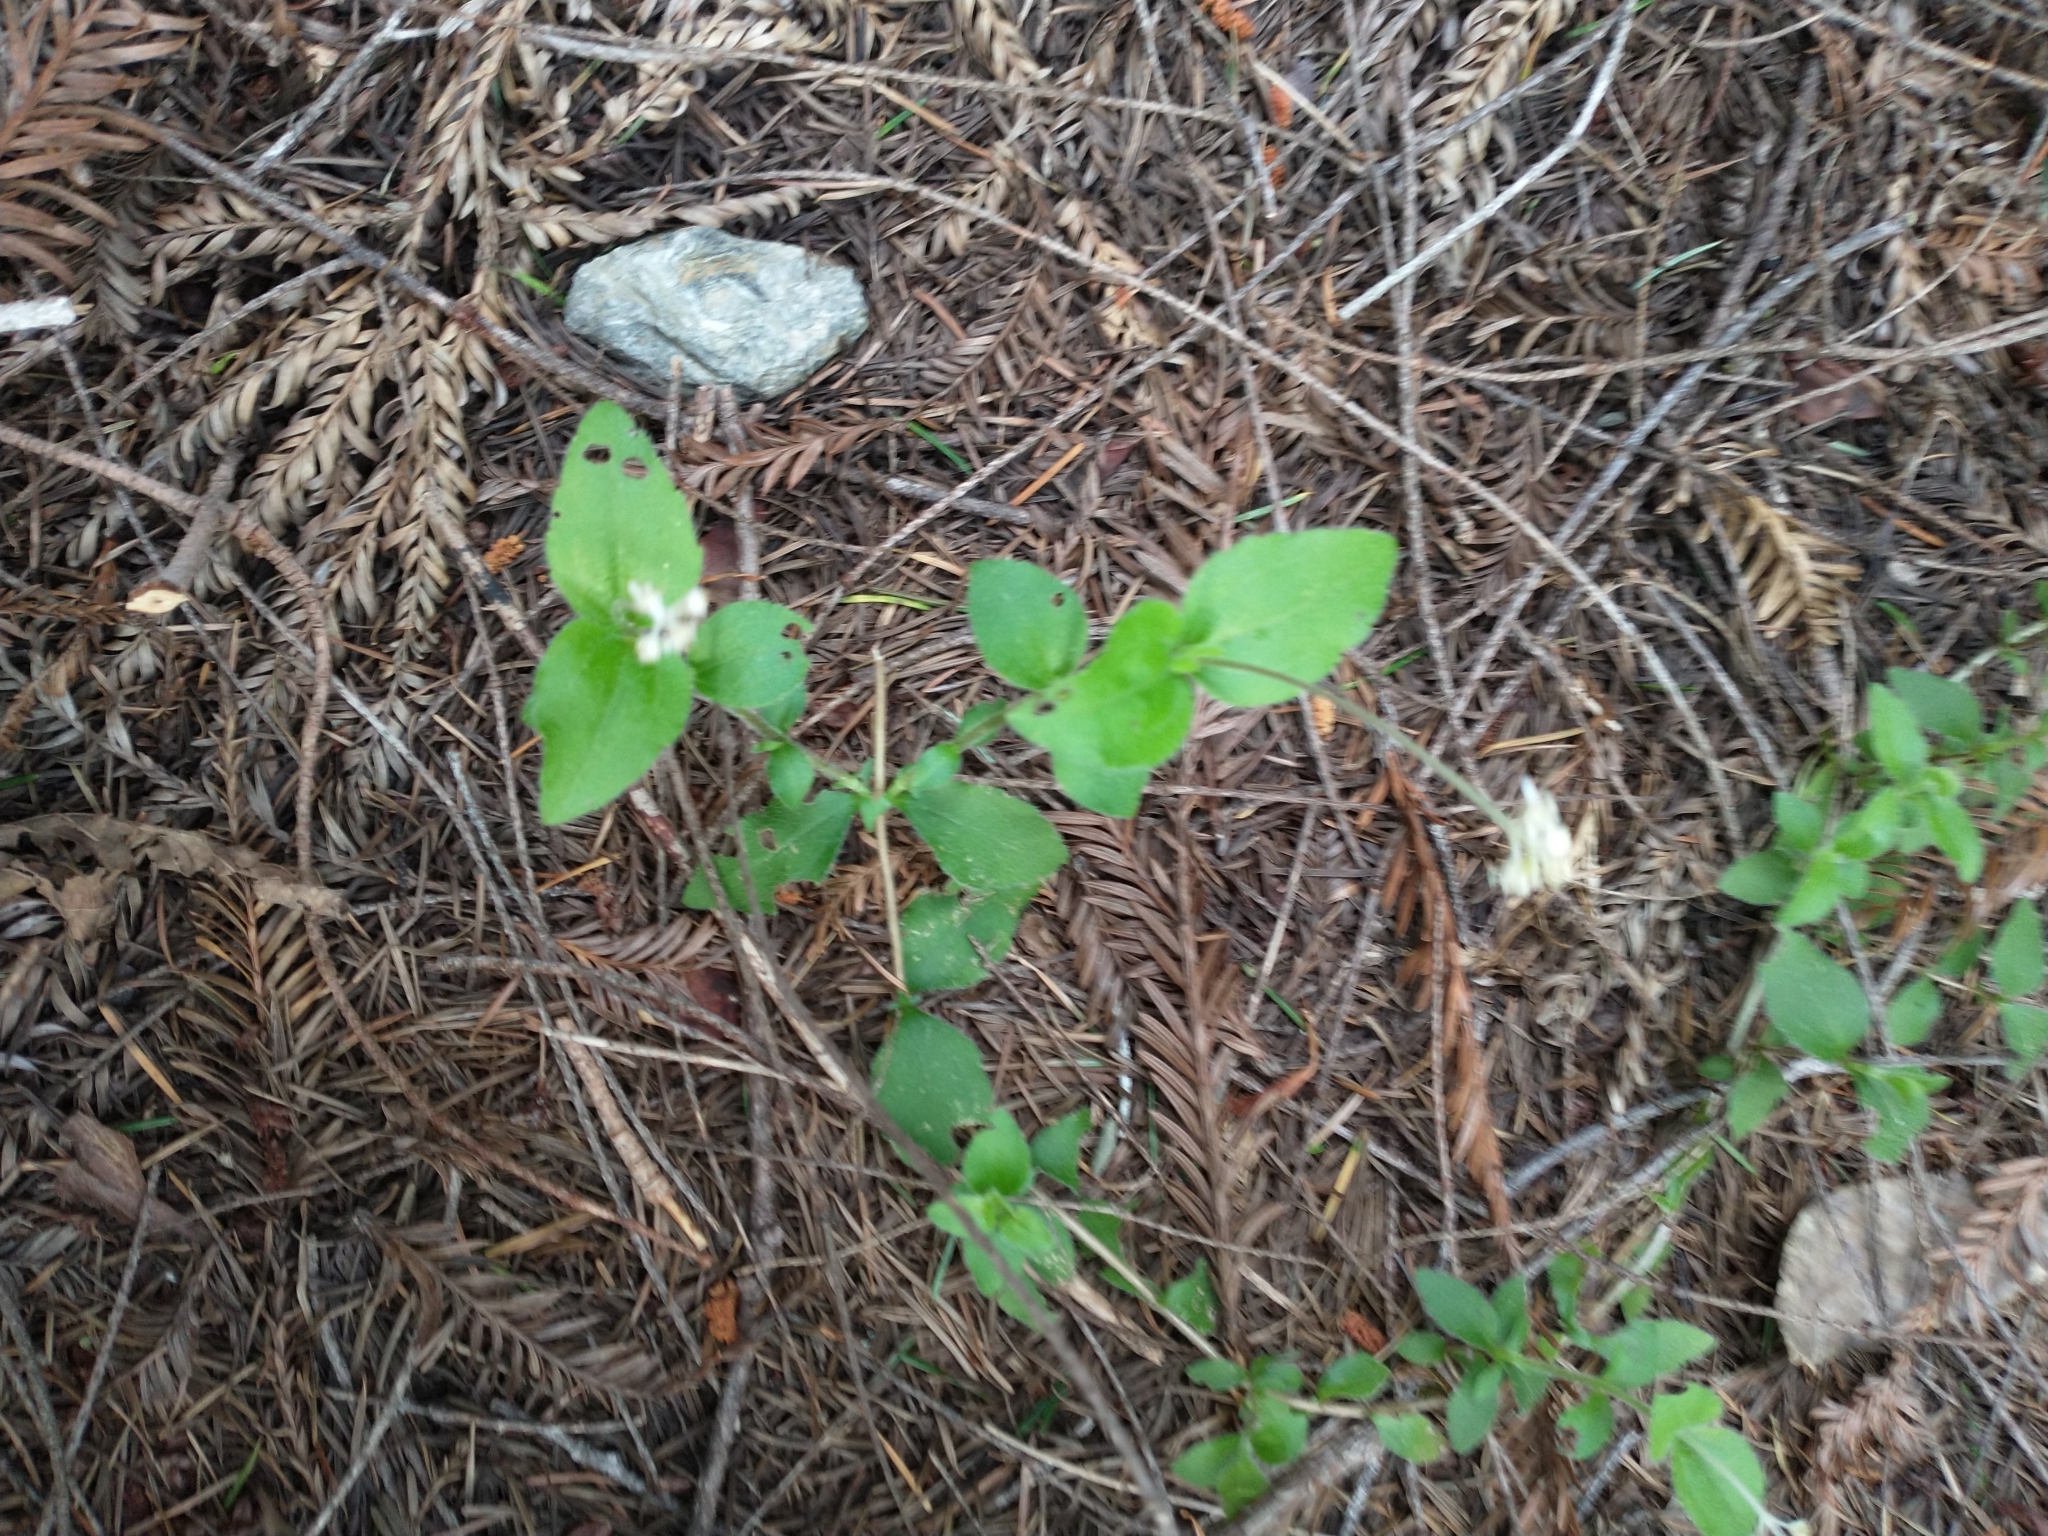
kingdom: Plantae
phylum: Tracheophyta
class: Magnoliopsida
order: Cornales
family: Hydrangeaceae
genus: Whipplea
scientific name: Whipplea modesta
